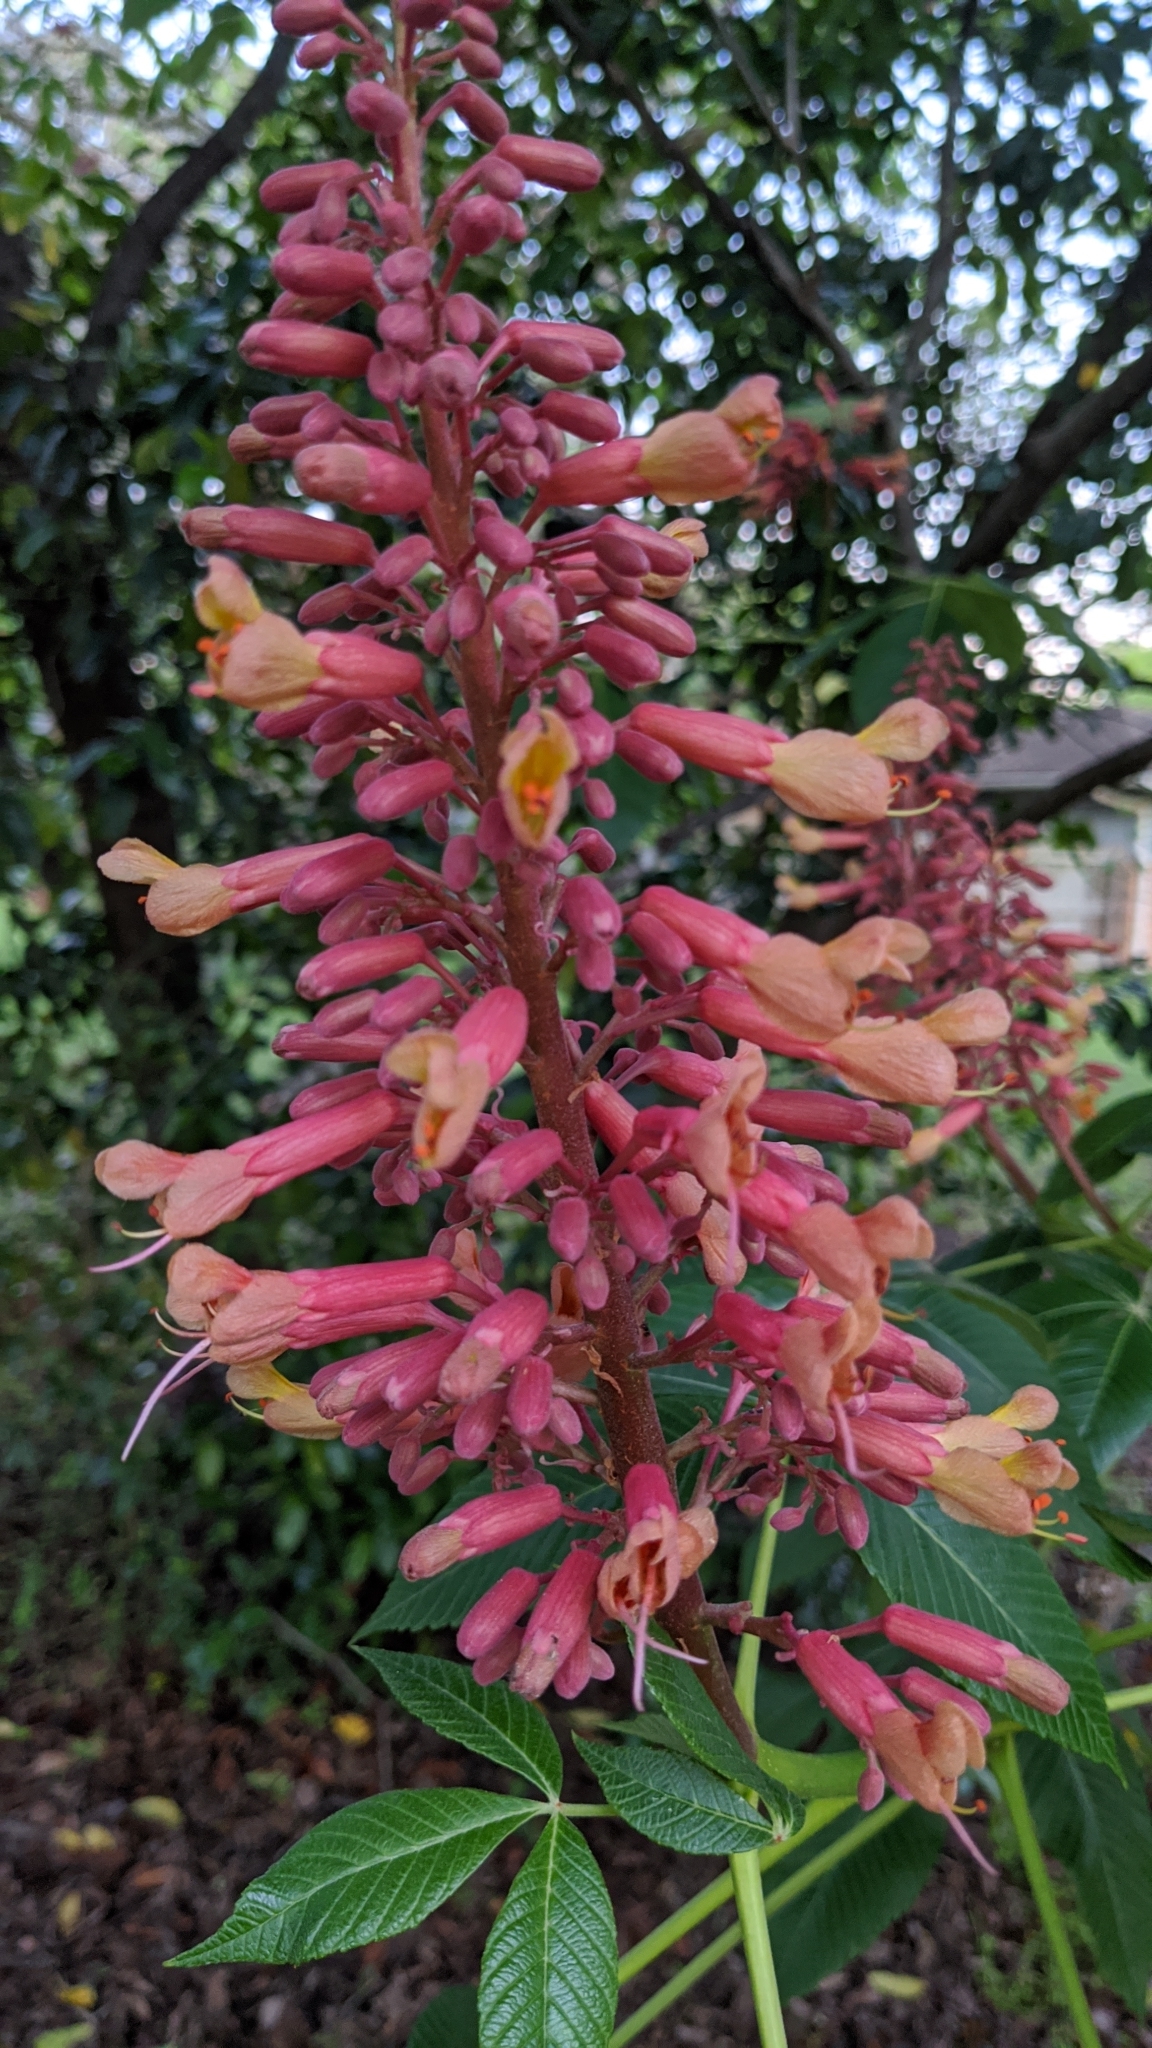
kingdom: Plantae
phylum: Tracheophyta
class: Magnoliopsida
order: Sapindales
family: Sapindaceae
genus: Aesculus
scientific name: Aesculus pavia
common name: Red buckeye
